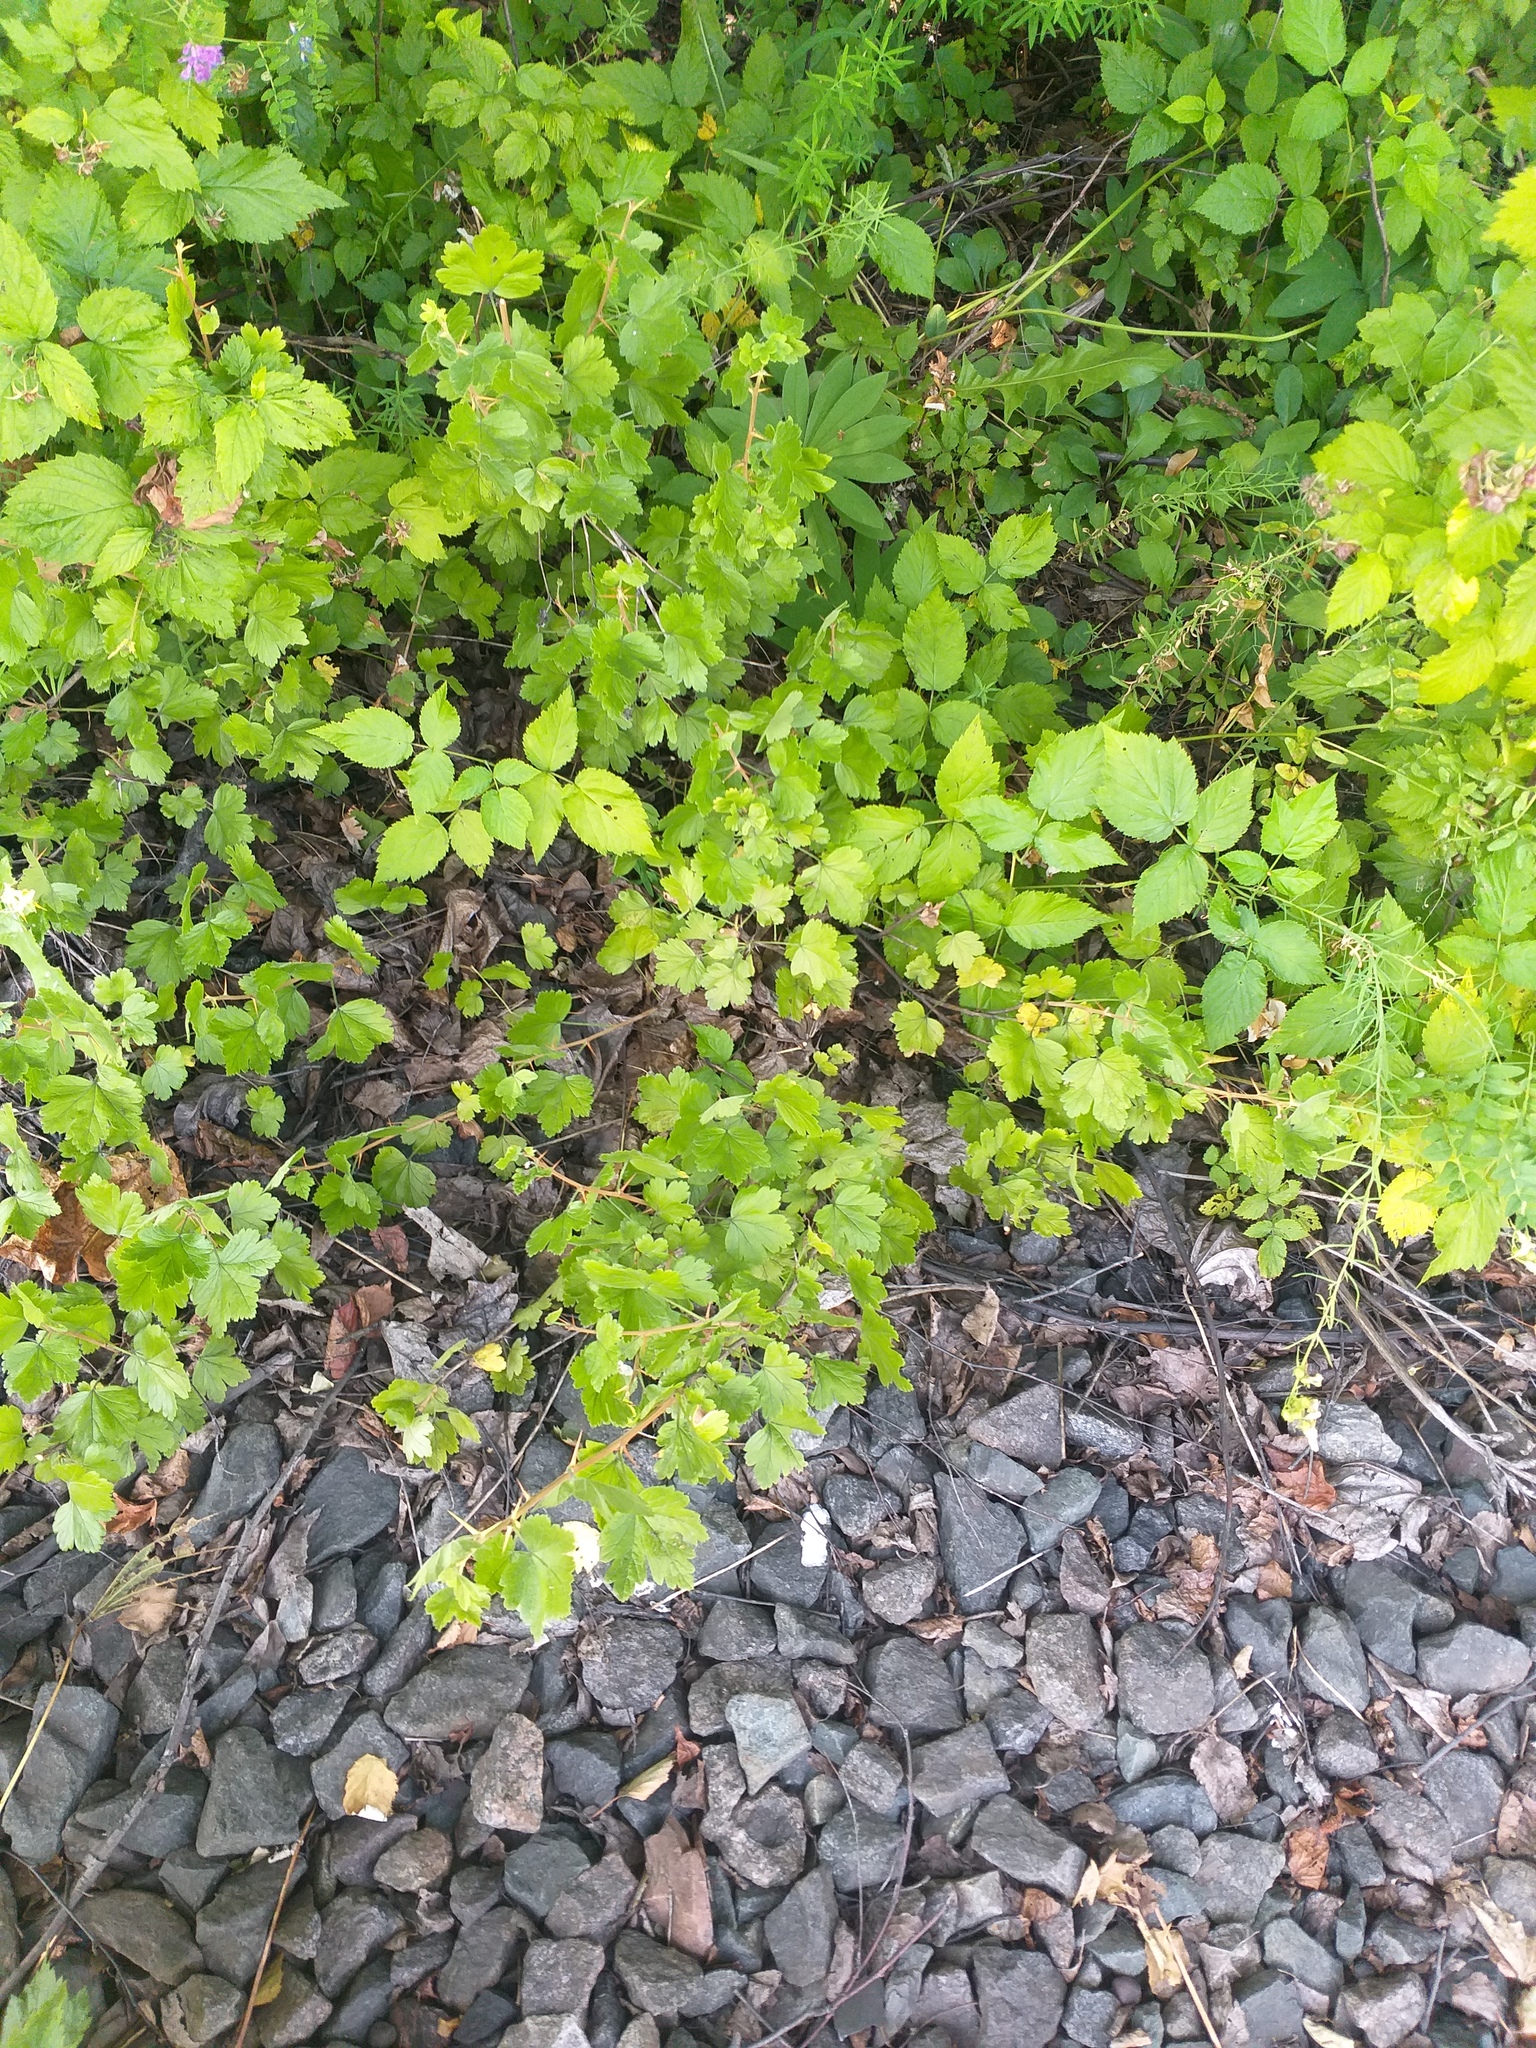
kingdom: Plantae
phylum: Tracheophyta
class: Magnoliopsida
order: Saxifragales
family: Grossulariaceae
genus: Ribes
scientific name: Ribes uva-crispa
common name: Gooseberry
